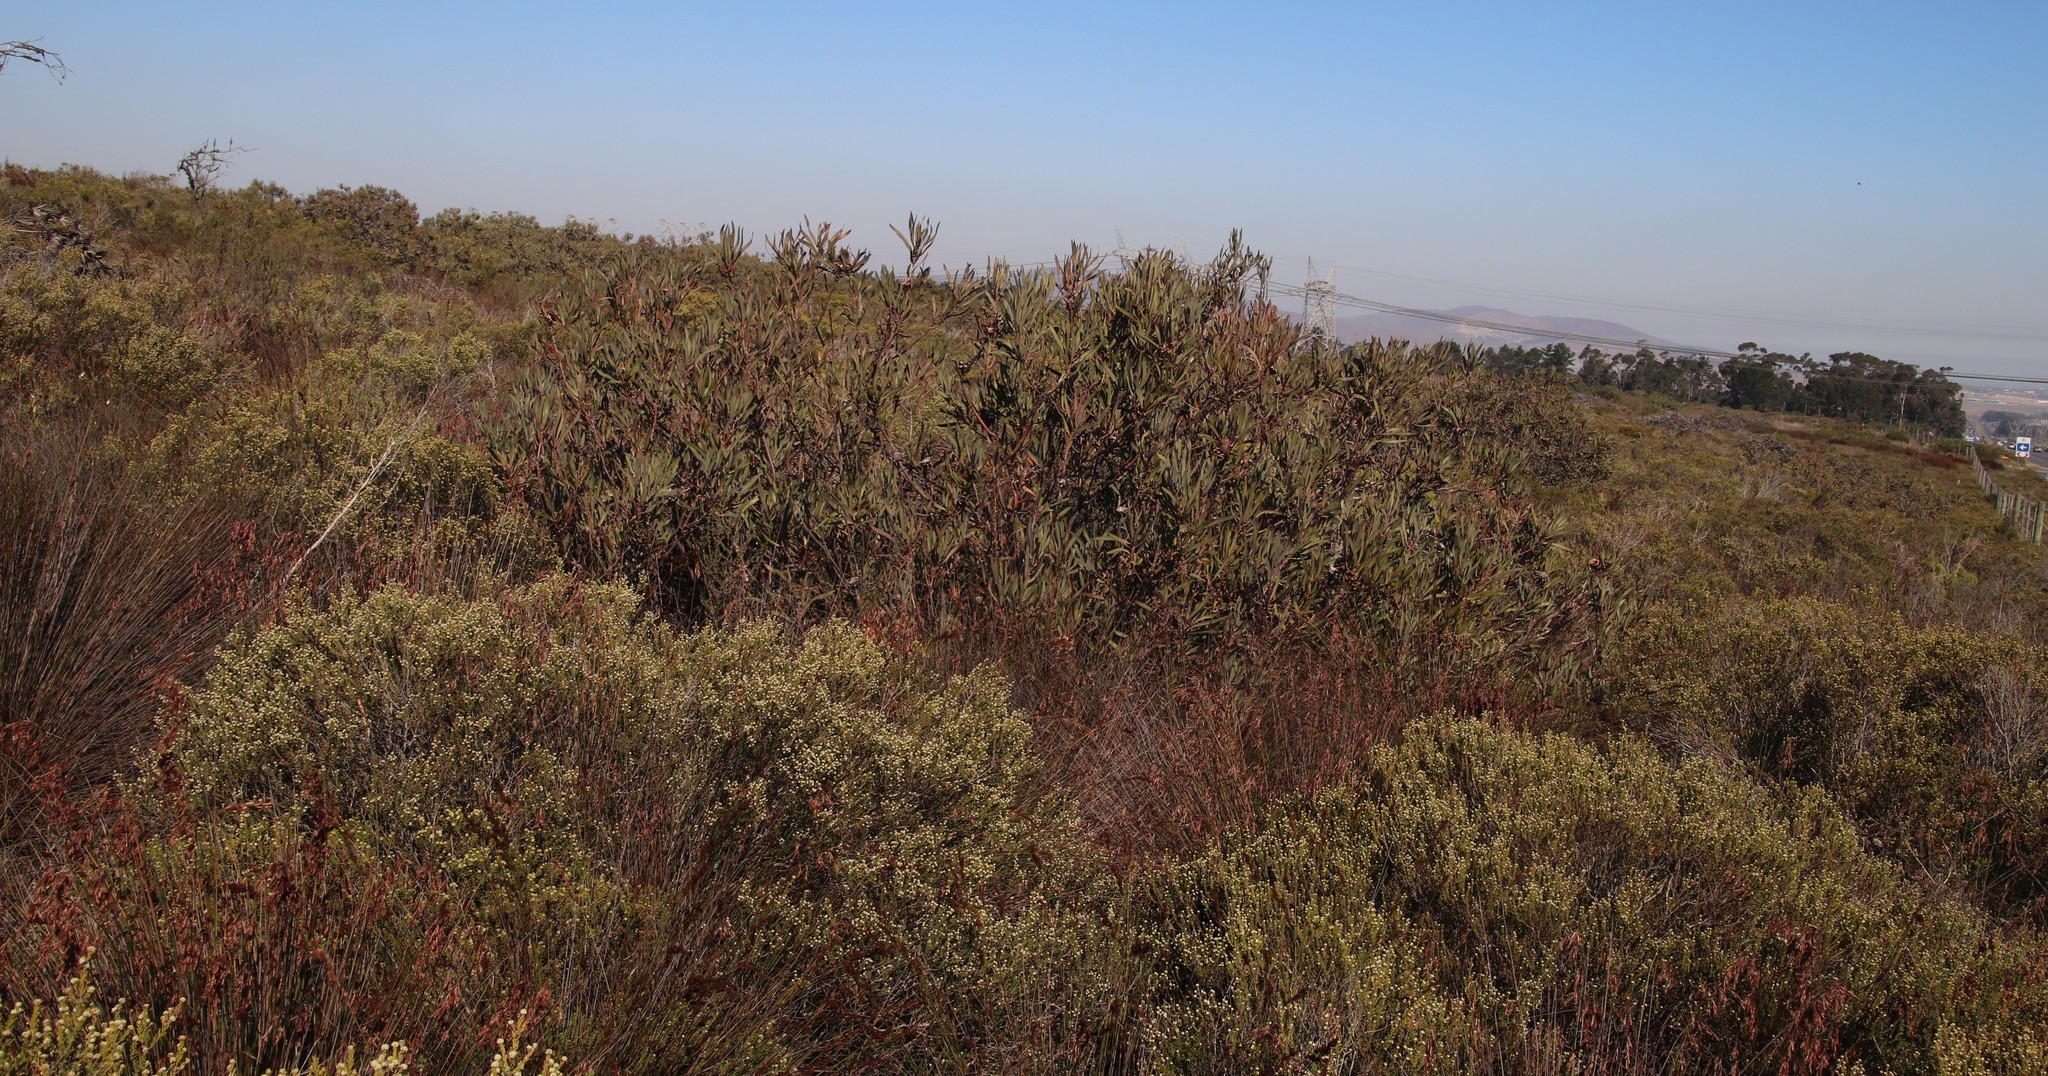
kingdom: Plantae
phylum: Tracheophyta
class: Magnoliopsida
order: Proteales
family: Proteaceae
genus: Protea
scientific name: Protea repens
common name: Sugarbush
